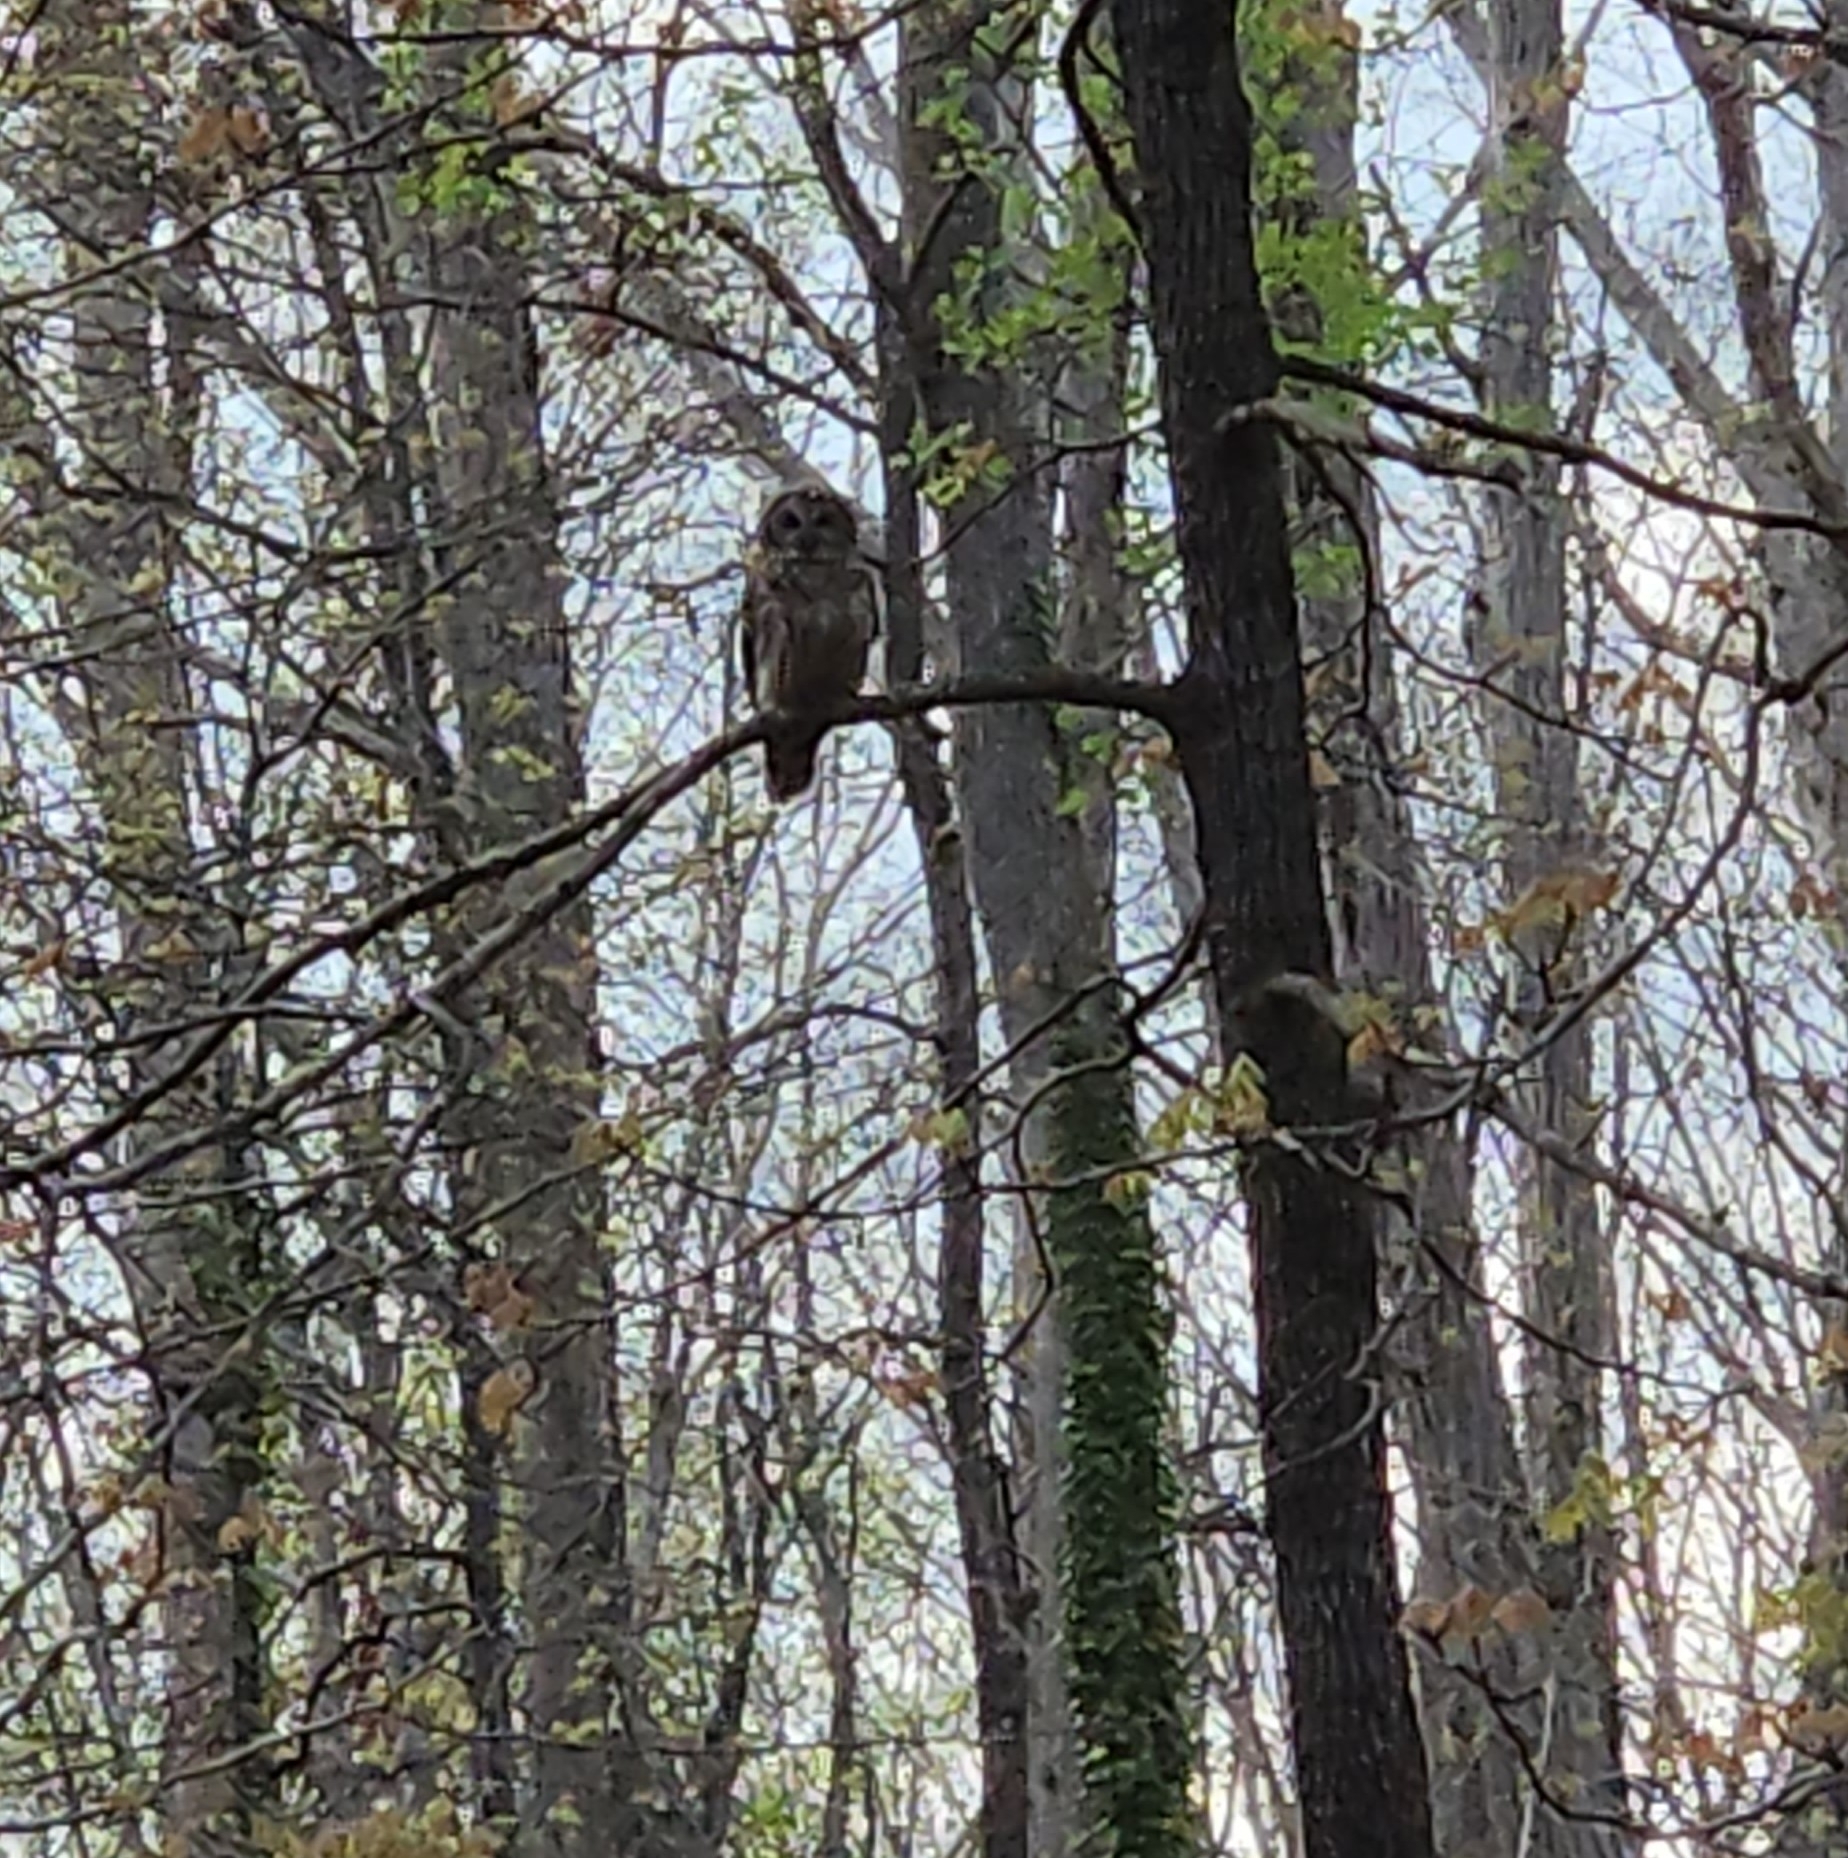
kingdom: Animalia
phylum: Chordata
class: Aves
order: Strigiformes
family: Strigidae
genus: Strix
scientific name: Strix varia
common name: Barred owl
